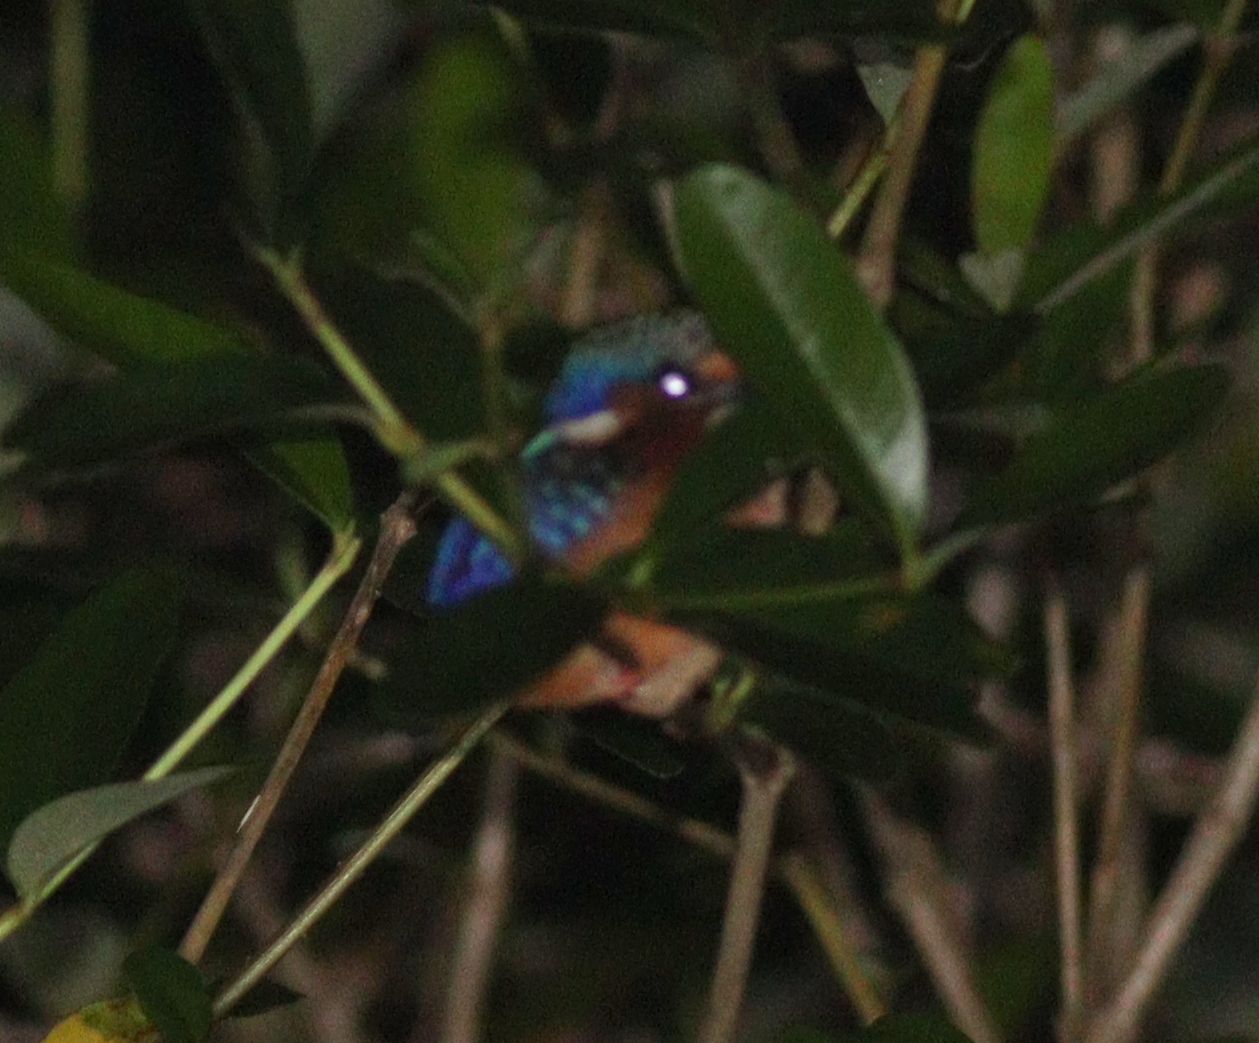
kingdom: Animalia
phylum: Chordata
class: Aves
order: Coraciiformes
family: Alcedinidae
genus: Corythornis
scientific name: Corythornis cristatus
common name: Malachite kingfisher
